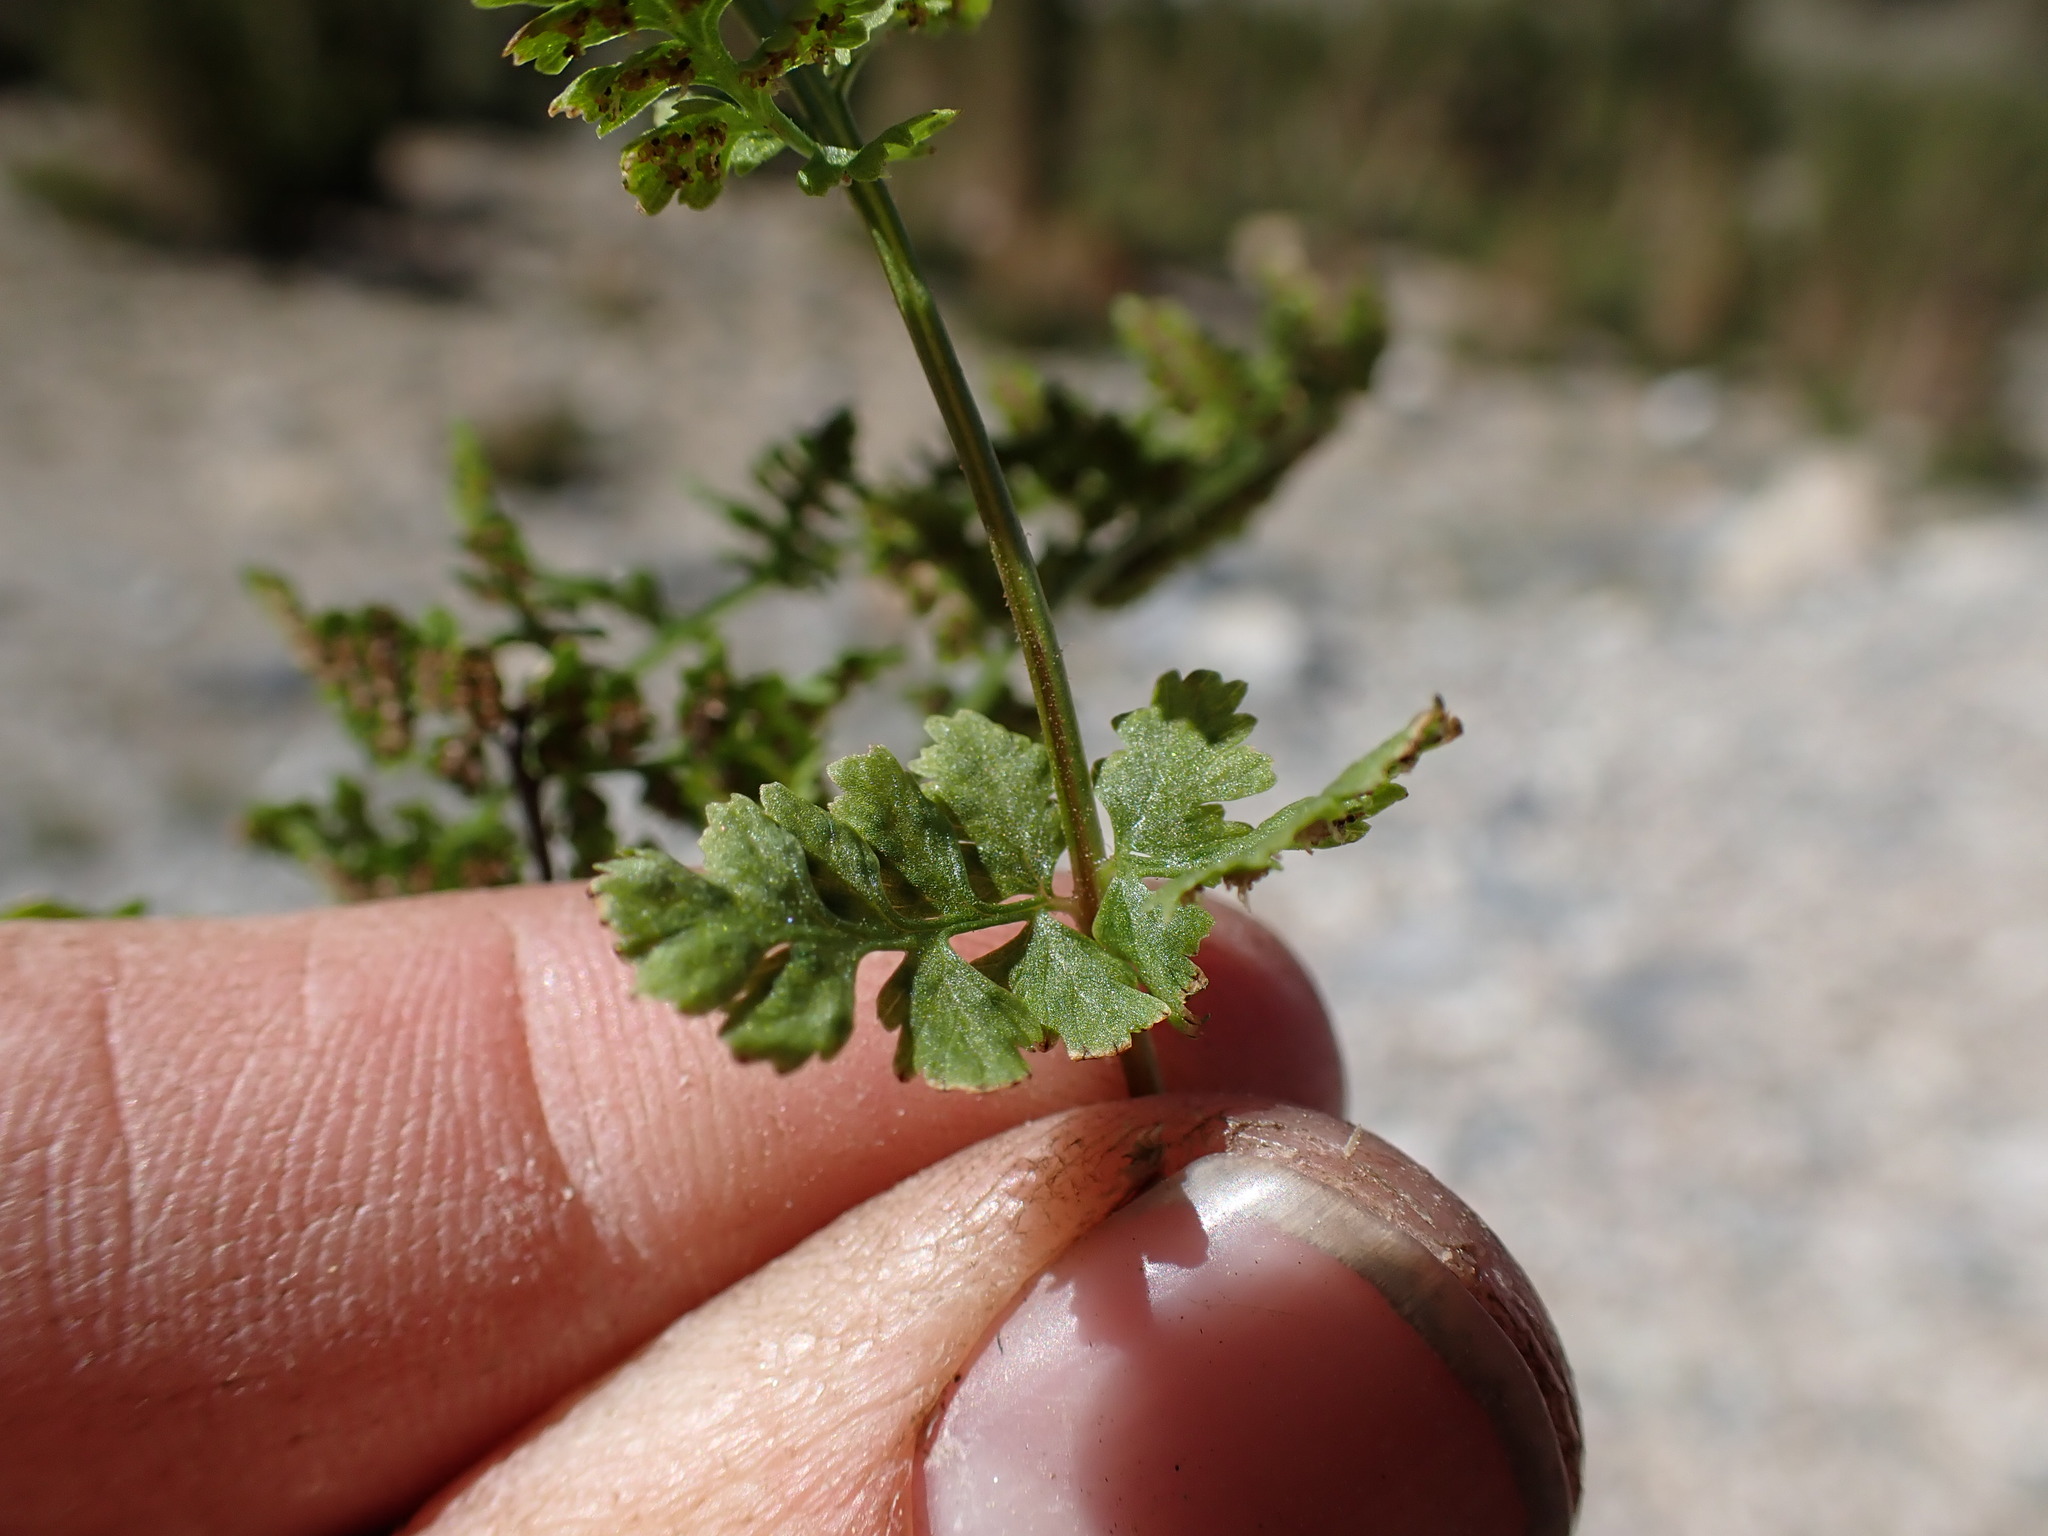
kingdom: Plantae
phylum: Tracheophyta
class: Polypodiopsida
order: Polypodiales
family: Cystopteridaceae
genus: Cystopteris
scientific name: Cystopteris fragilis
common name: Brittle bladder fern
